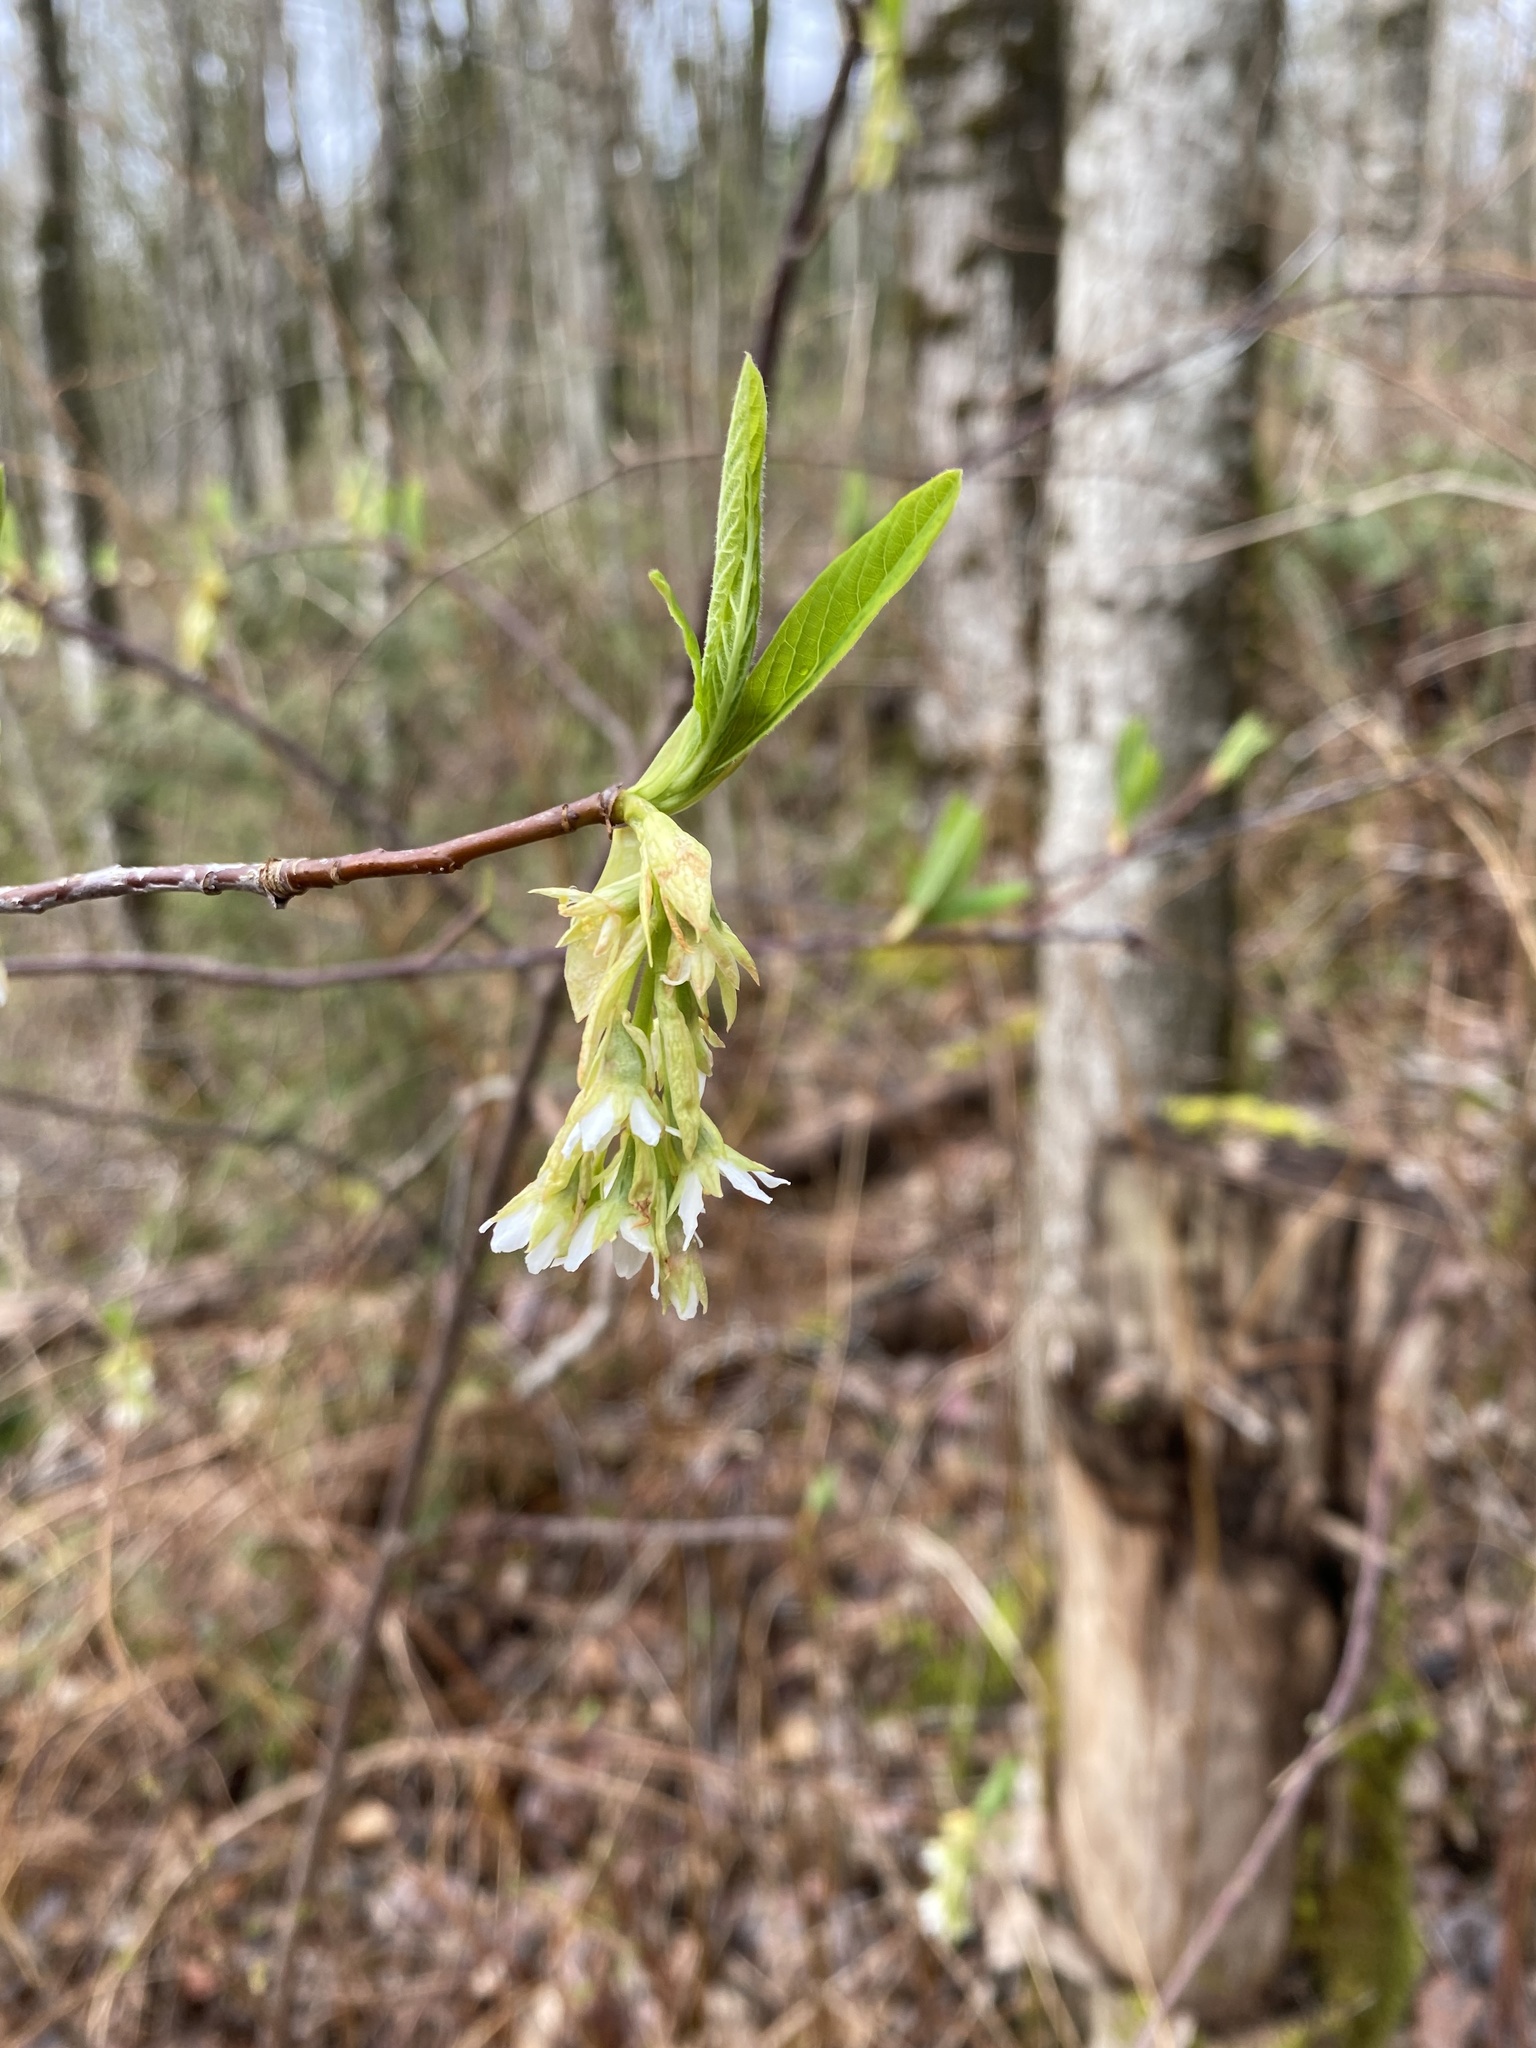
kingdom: Plantae
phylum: Tracheophyta
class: Magnoliopsida
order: Rosales
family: Rosaceae
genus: Oemleria
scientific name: Oemleria cerasiformis
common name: Osoberry
